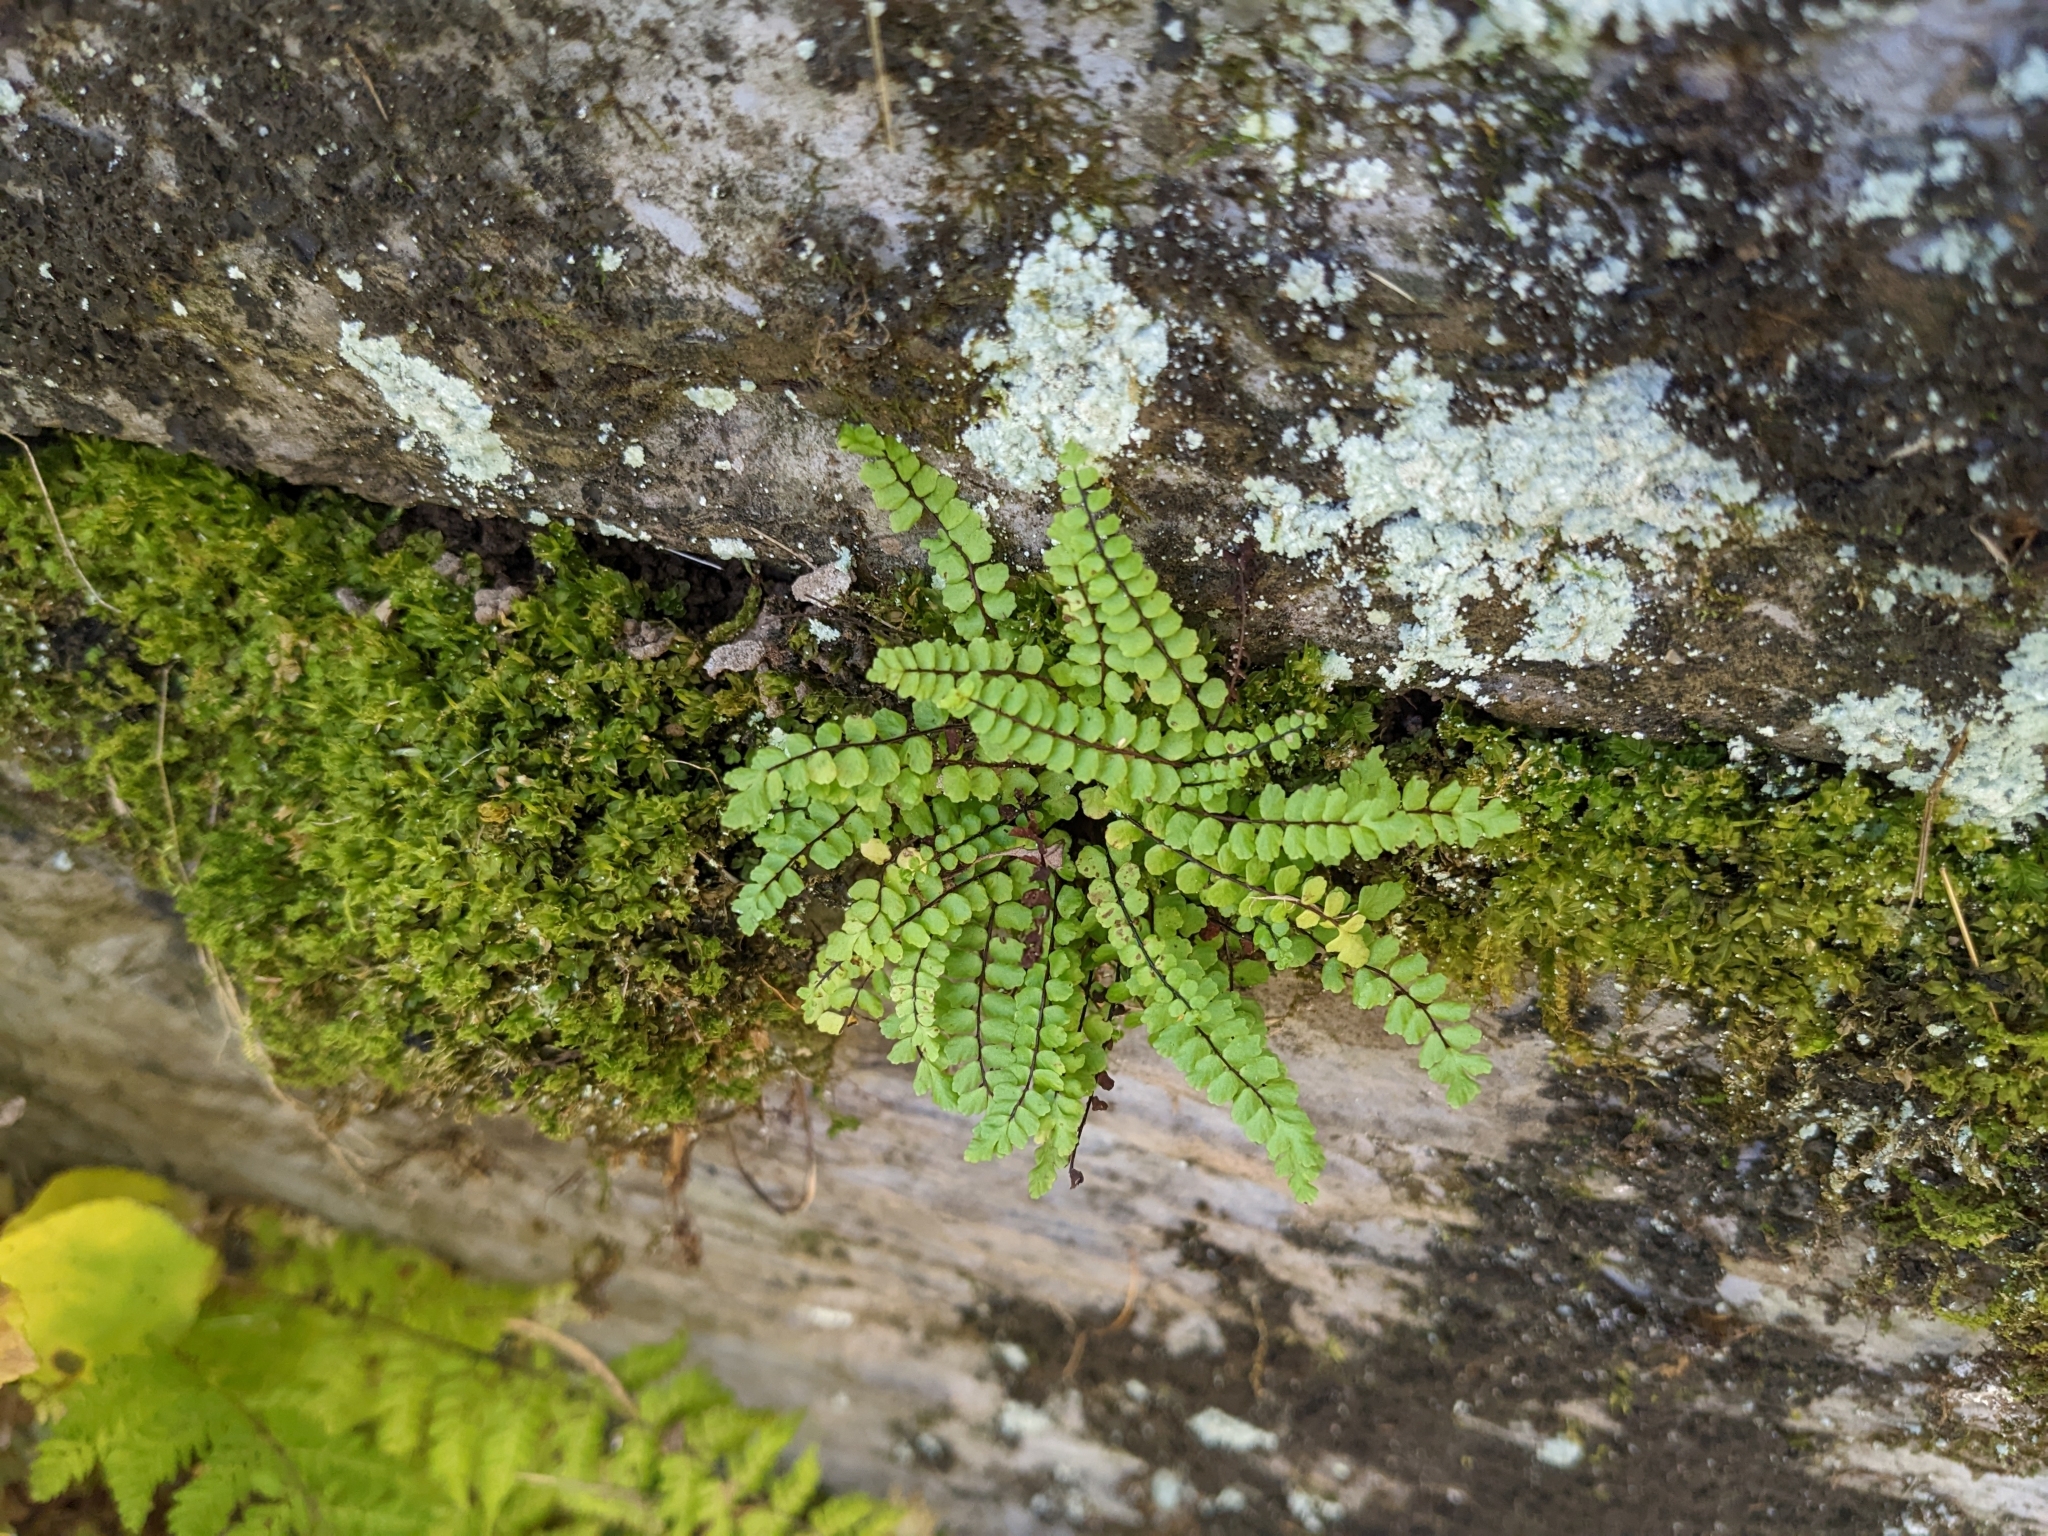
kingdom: Plantae
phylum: Tracheophyta
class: Polypodiopsida
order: Polypodiales
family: Aspleniaceae
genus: Asplenium
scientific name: Asplenium trichomanes
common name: Maidenhair spleenwort
